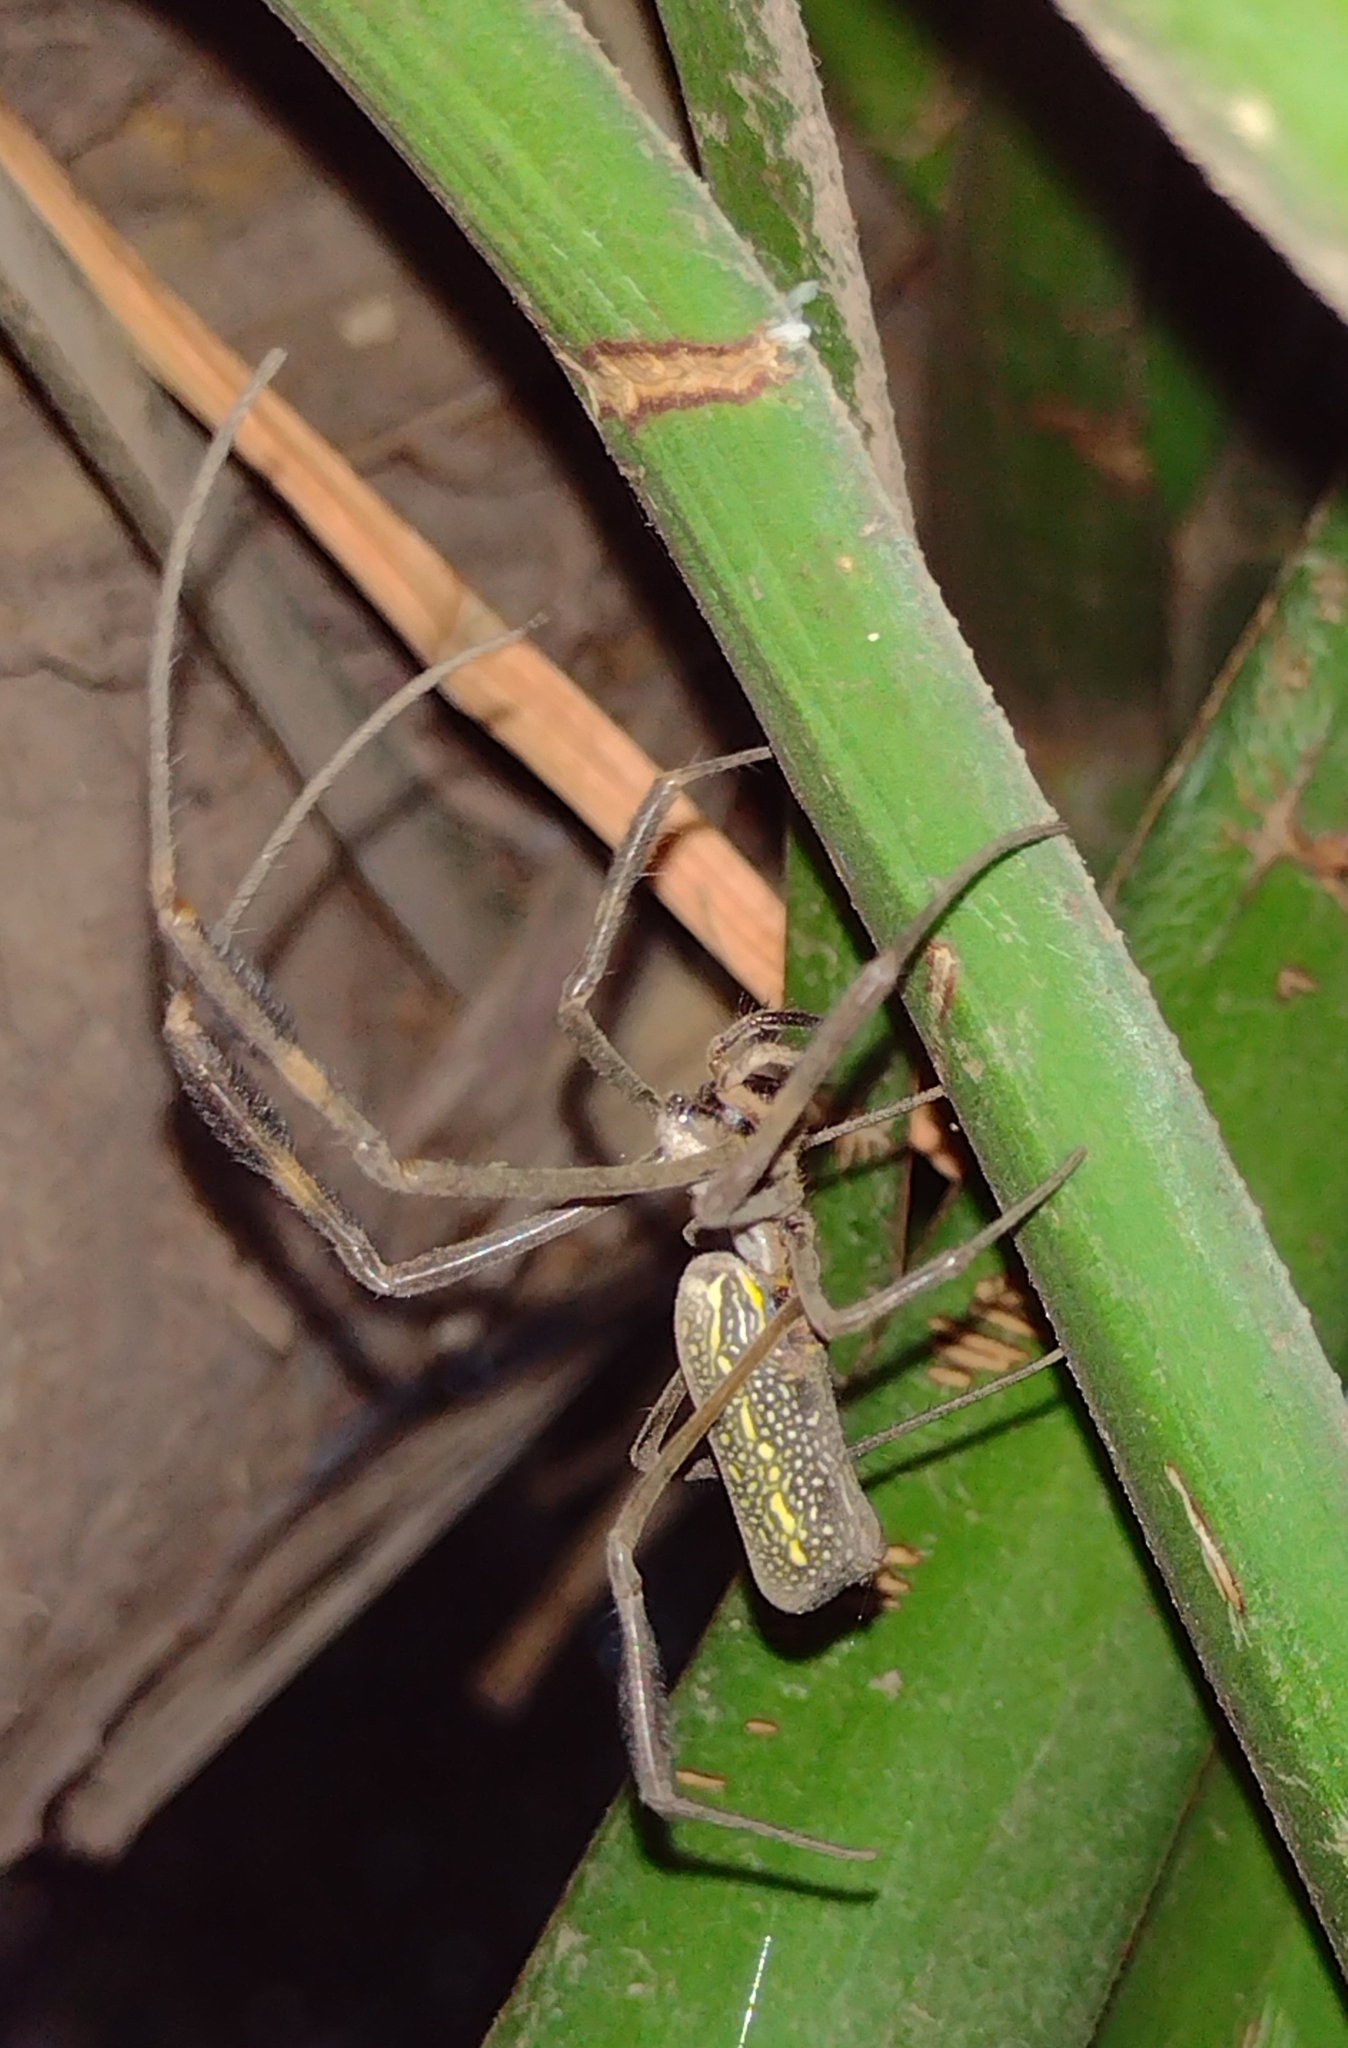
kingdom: Animalia
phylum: Arthropoda
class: Arachnida
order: Araneae
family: Araneidae
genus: Trichonephila
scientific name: Trichonephila clavipes
